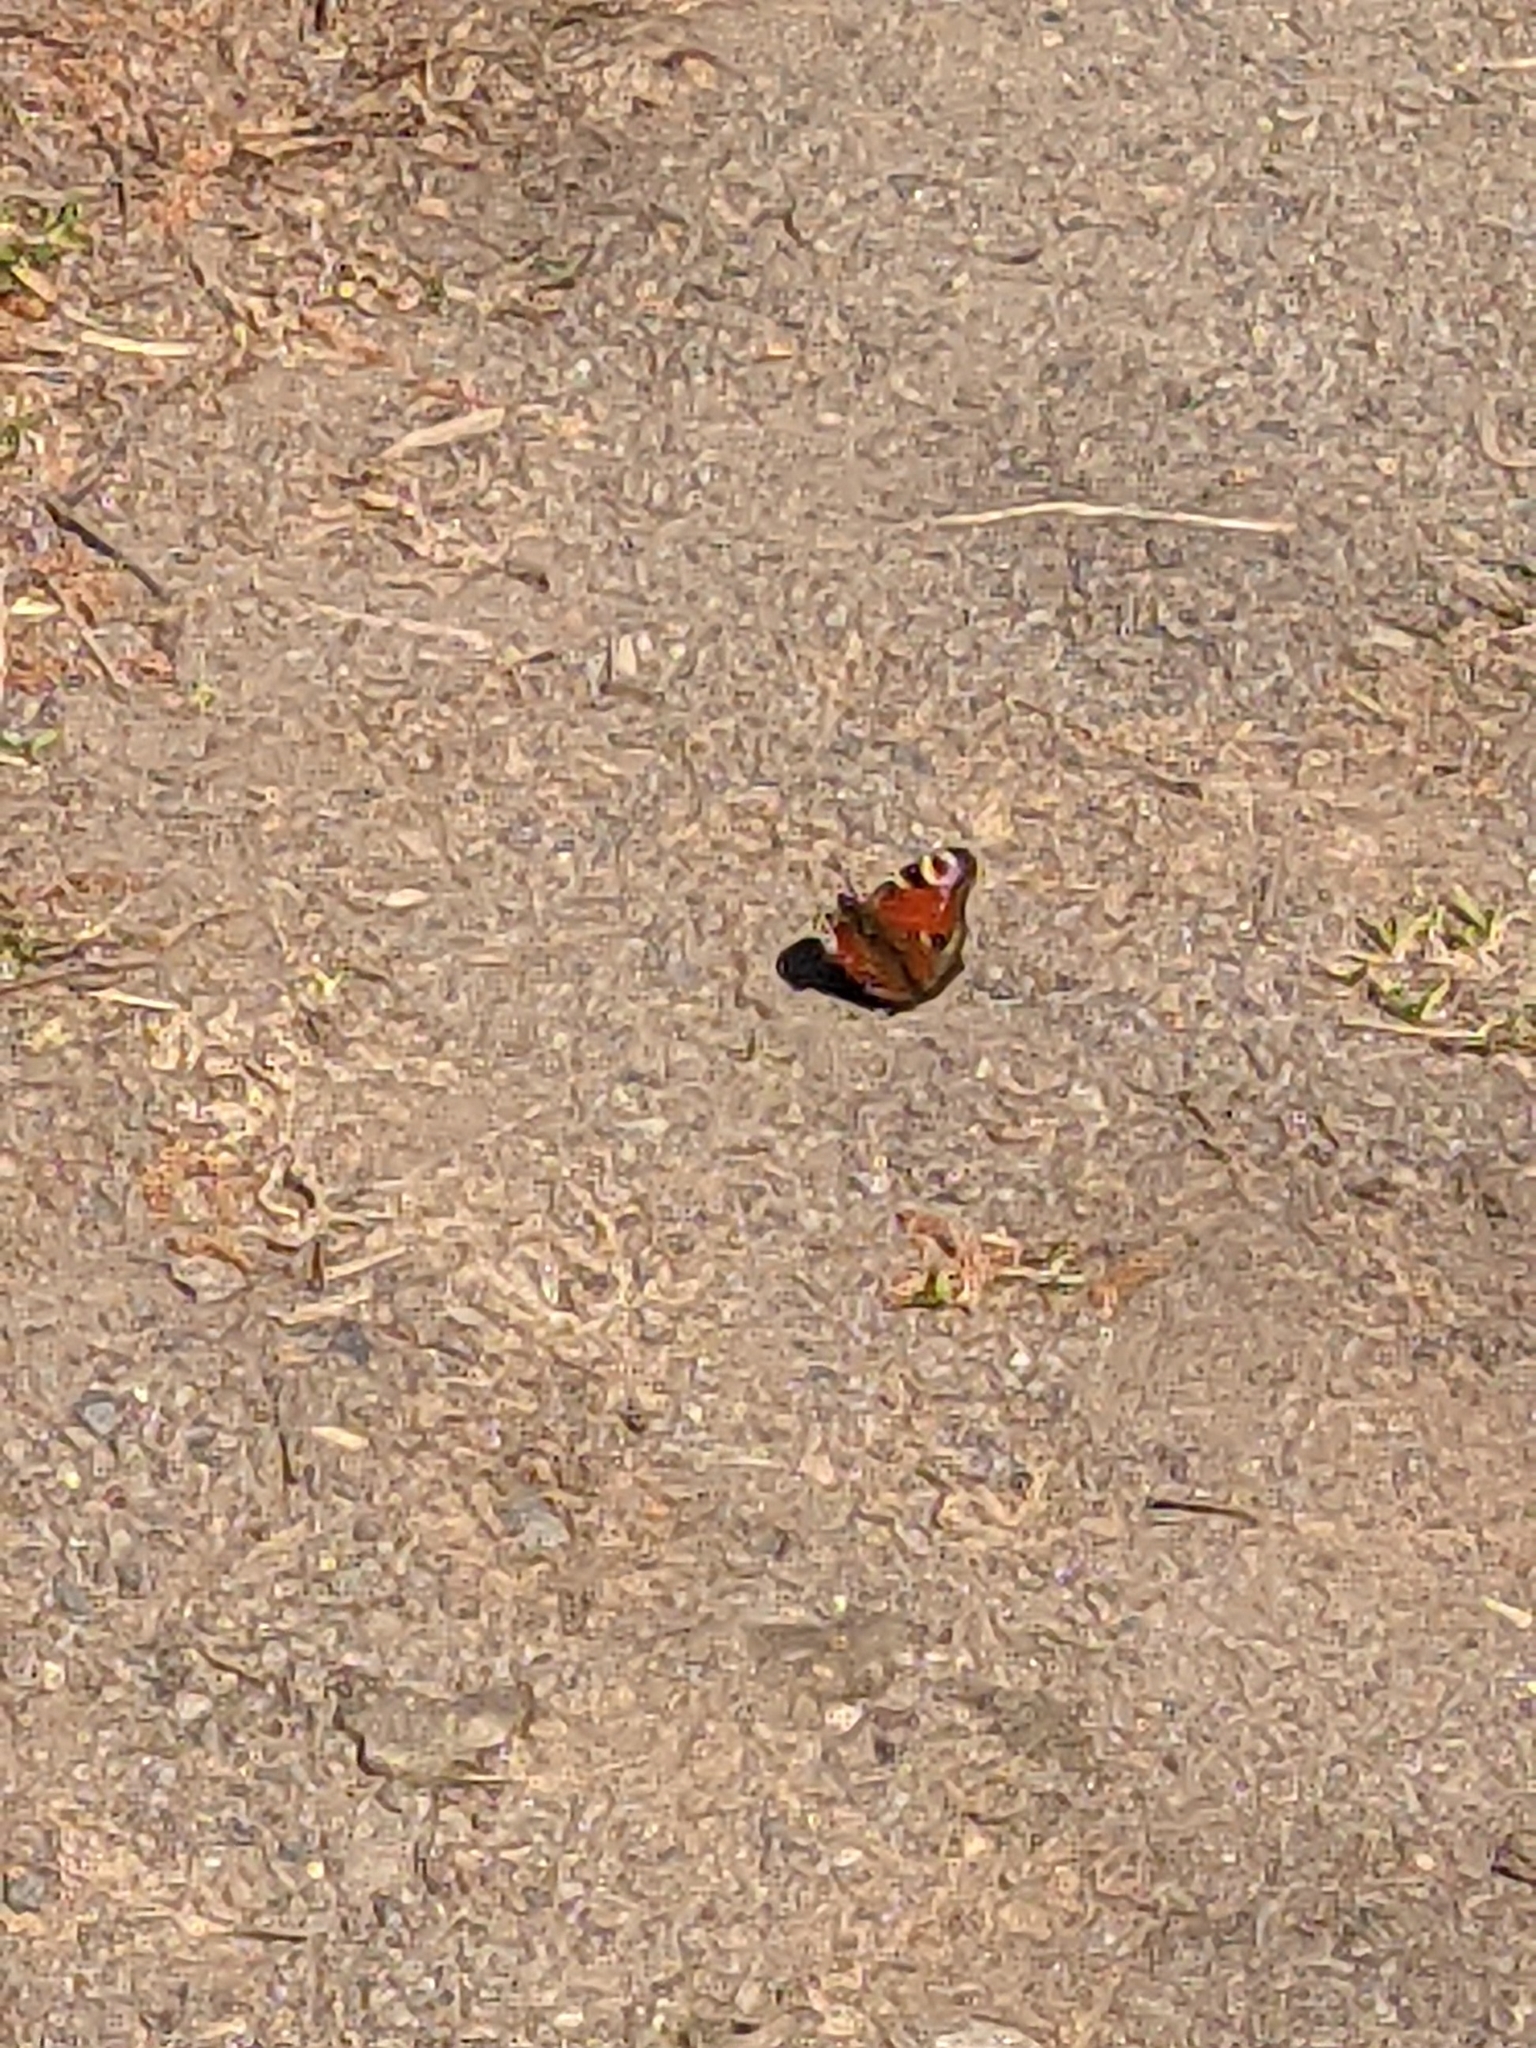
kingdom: Animalia
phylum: Arthropoda
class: Insecta
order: Lepidoptera
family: Nymphalidae
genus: Aglais
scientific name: Aglais io
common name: Peacock
